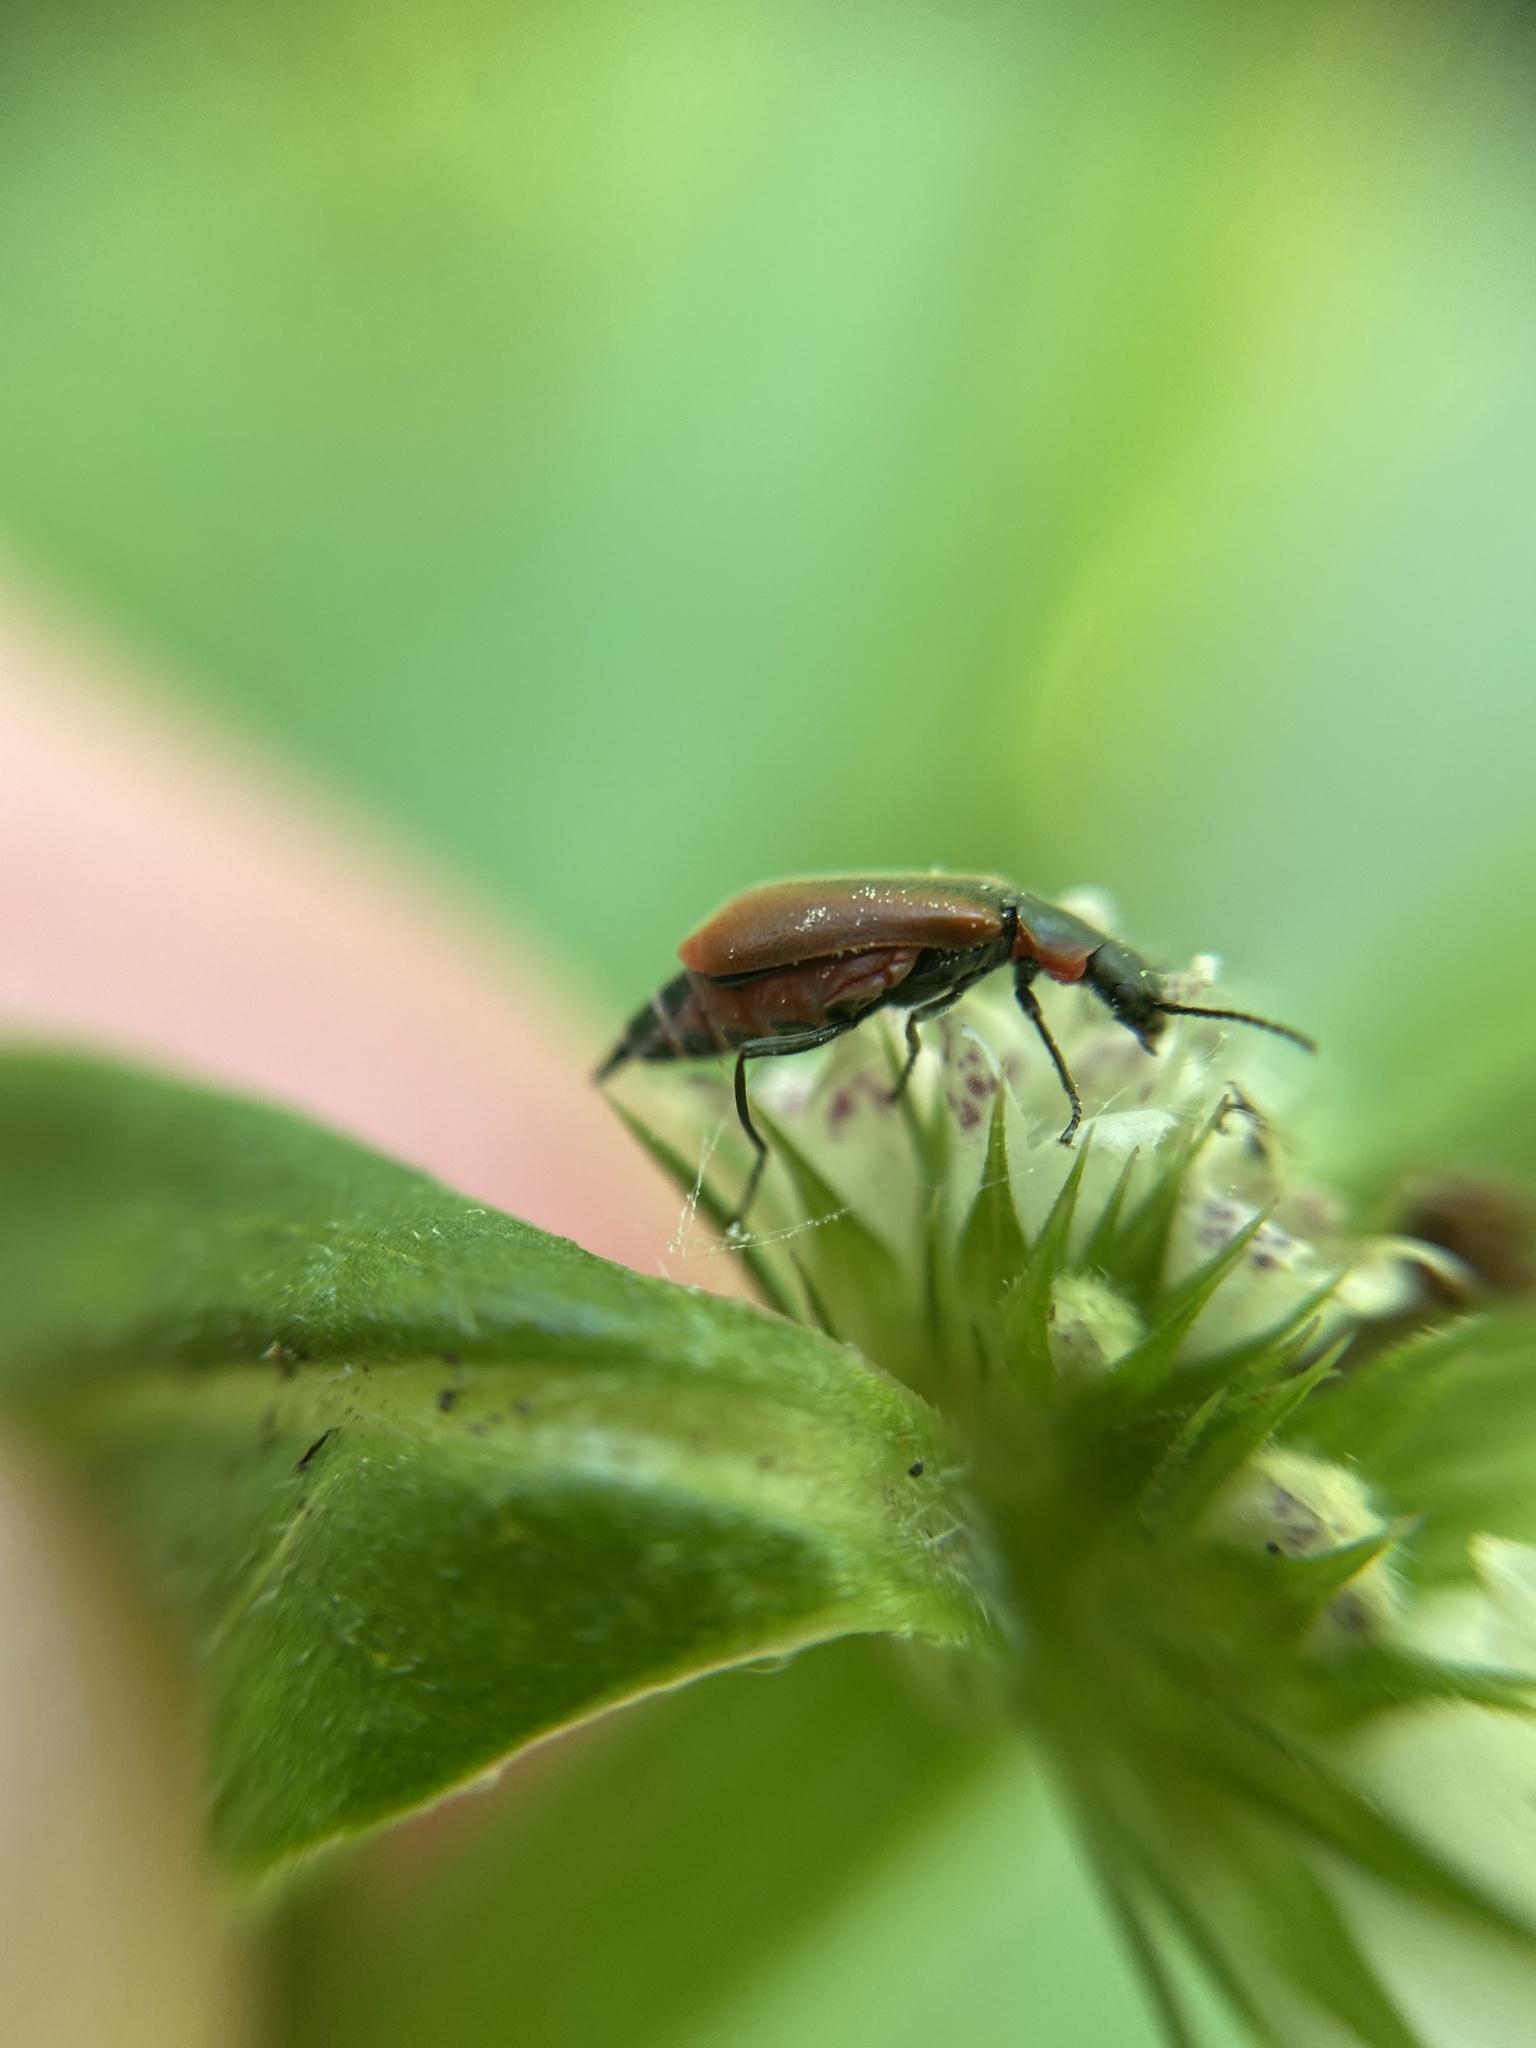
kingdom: Animalia
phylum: Arthropoda
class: Insecta
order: Coleoptera
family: Melyridae
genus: Anthocomus
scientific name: Anthocomus rufus
